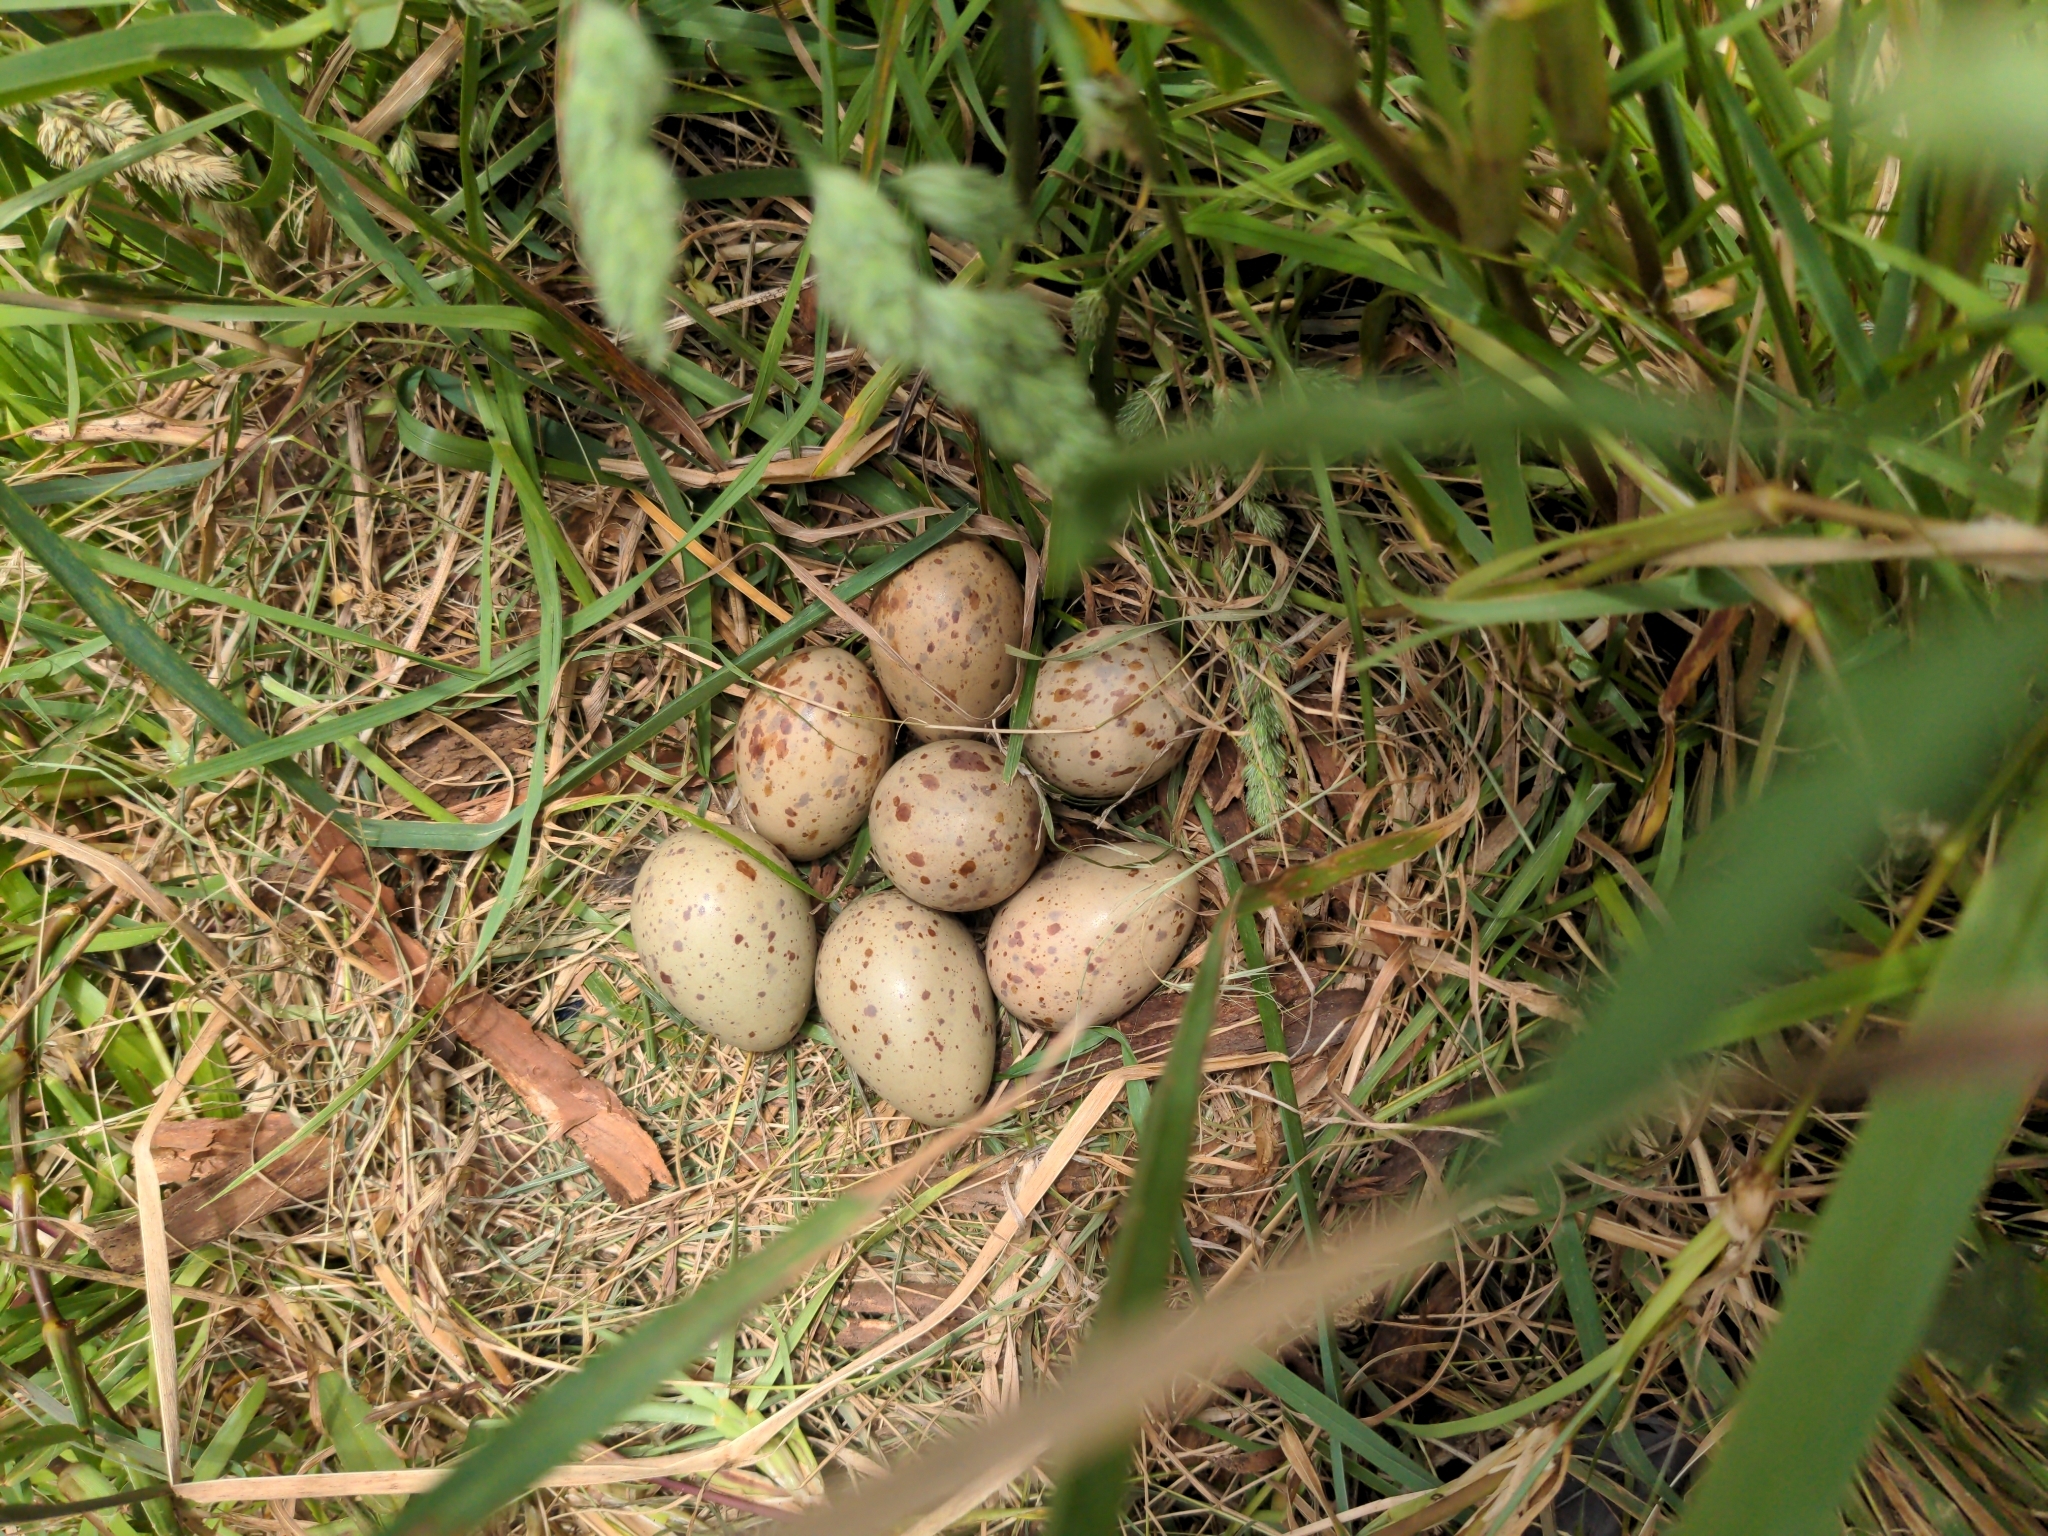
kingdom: Animalia
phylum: Chordata
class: Aves
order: Gruiformes
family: Rallidae
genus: Porphyrio
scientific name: Porphyrio melanotus
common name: Australasian swamphen
